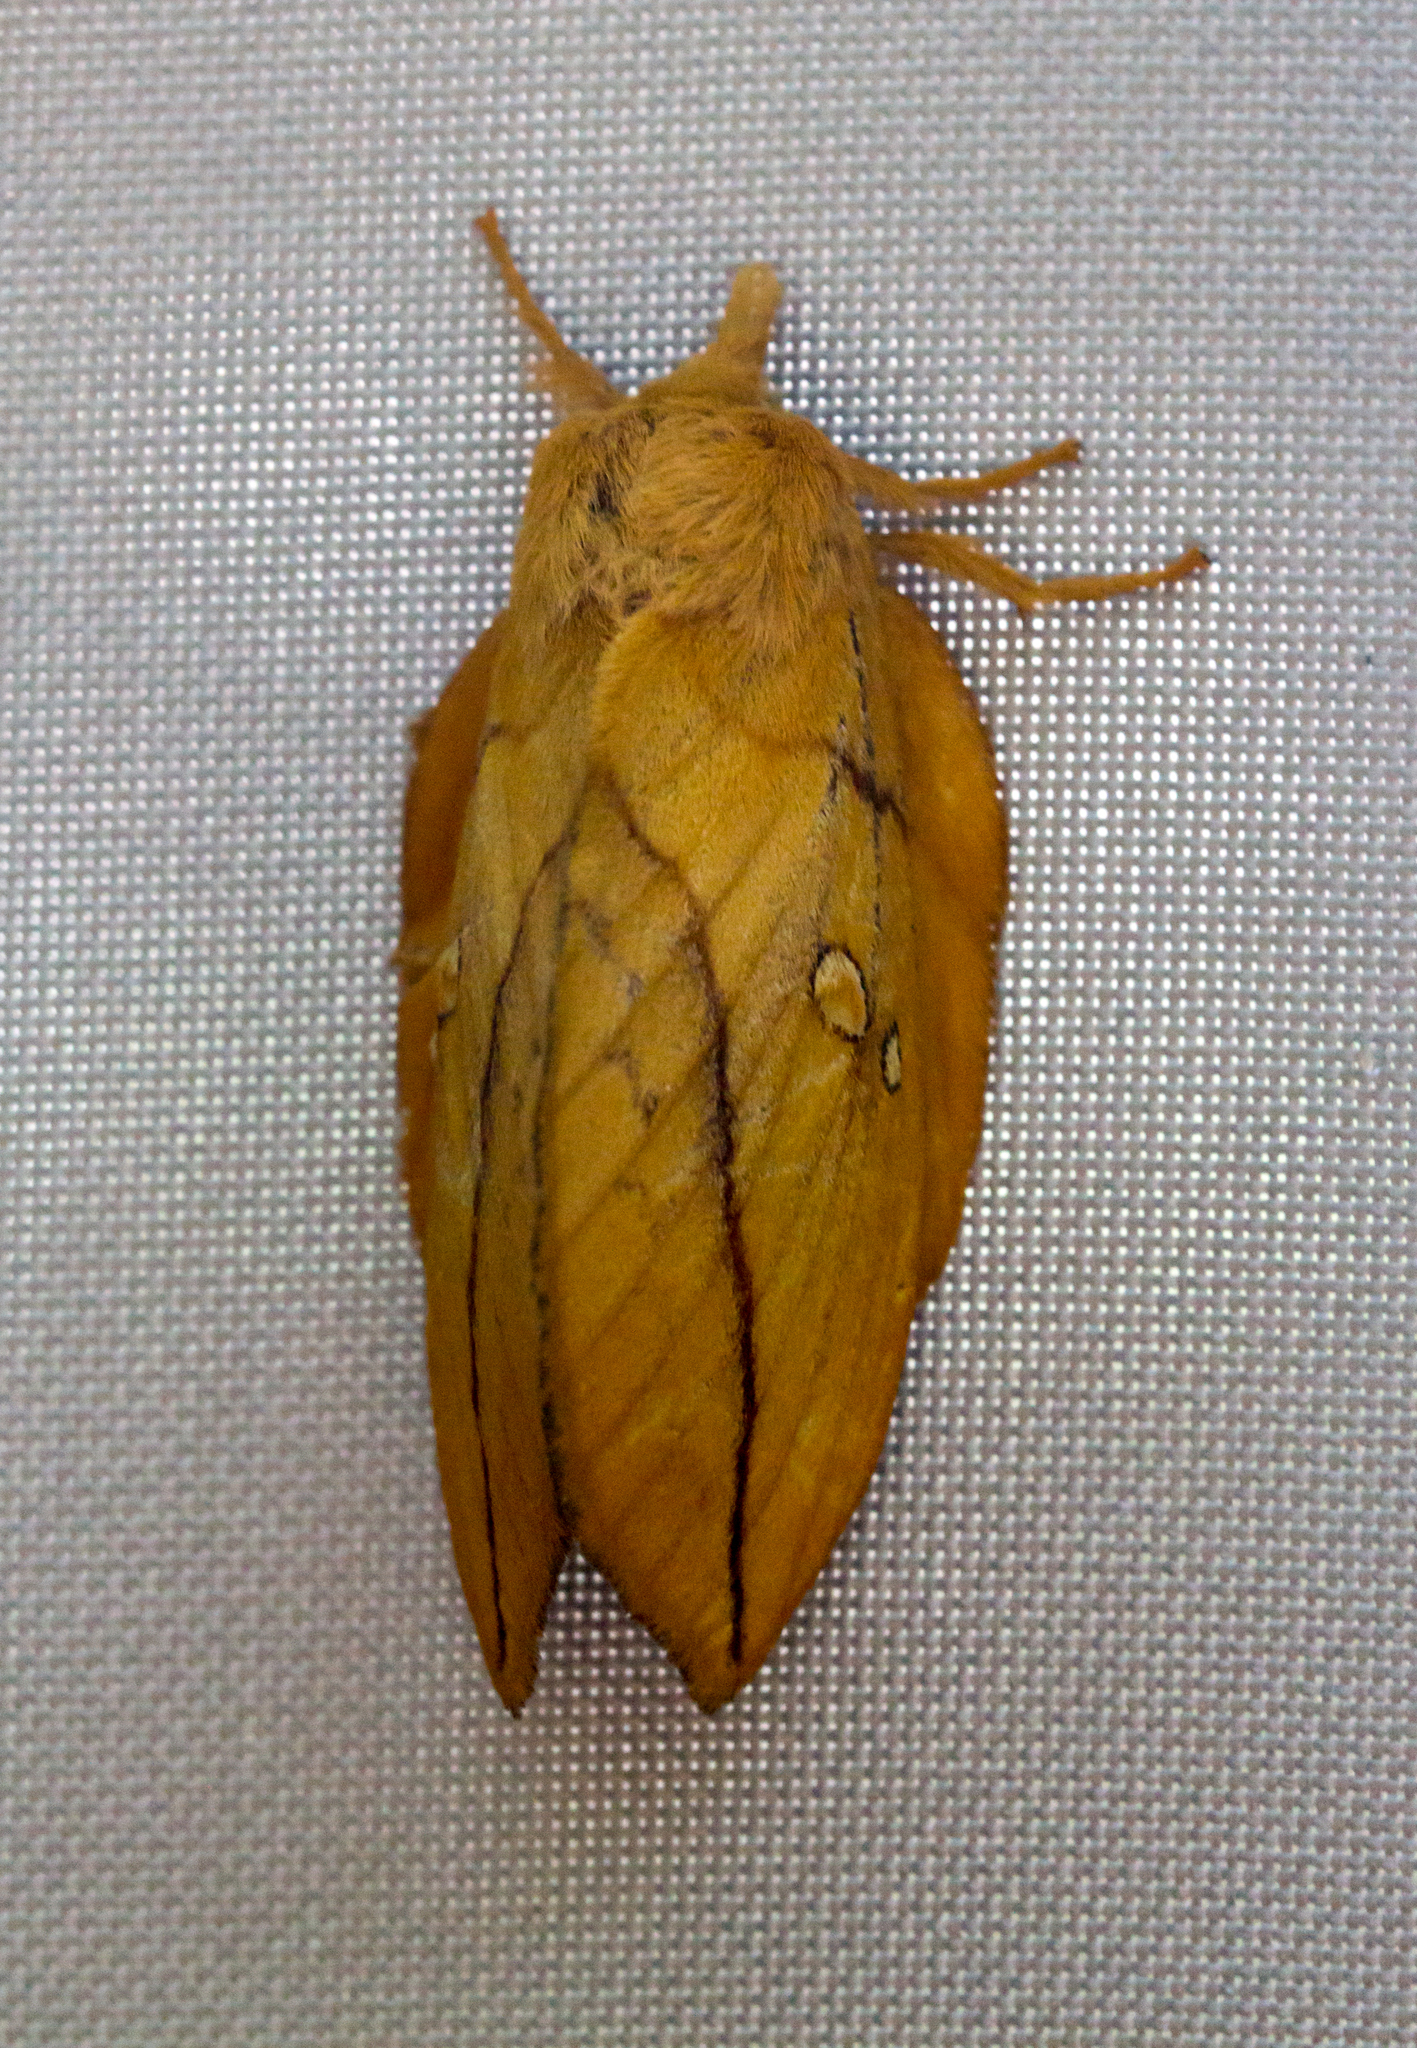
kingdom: Animalia
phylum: Arthropoda
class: Insecta
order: Lepidoptera
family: Lasiocampidae
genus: Euthrix
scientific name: Euthrix potatoria
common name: Drinker
